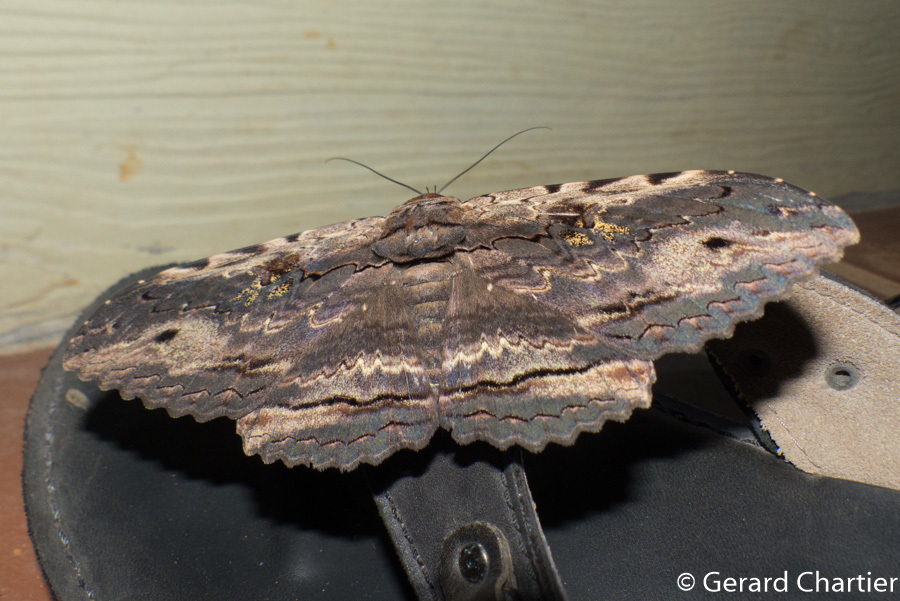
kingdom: Animalia
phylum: Arthropoda
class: Insecta
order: Lepidoptera
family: Erebidae
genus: Anisoneura
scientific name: Anisoneura aluco
